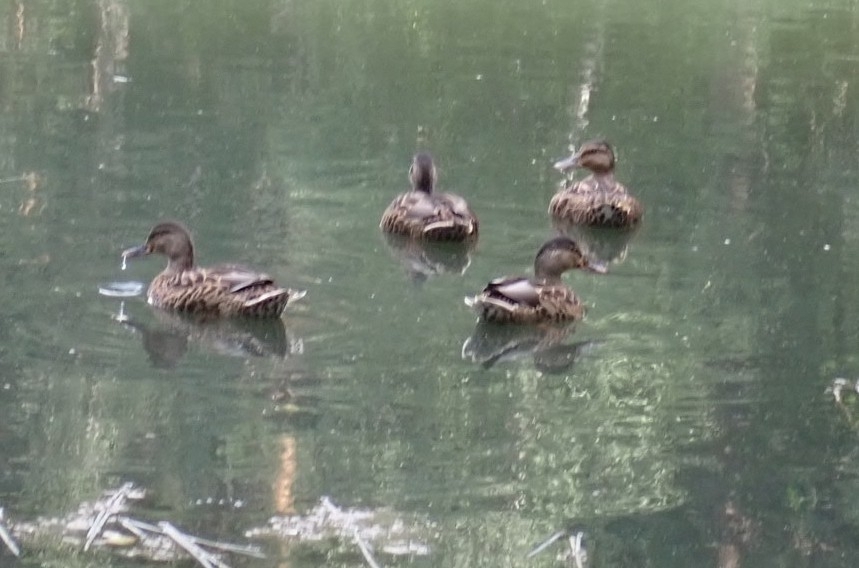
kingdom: Animalia
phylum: Chordata
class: Aves
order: Anseriformes
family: Anatidae
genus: Anas
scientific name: Anas platyrhynchos
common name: Mallard
